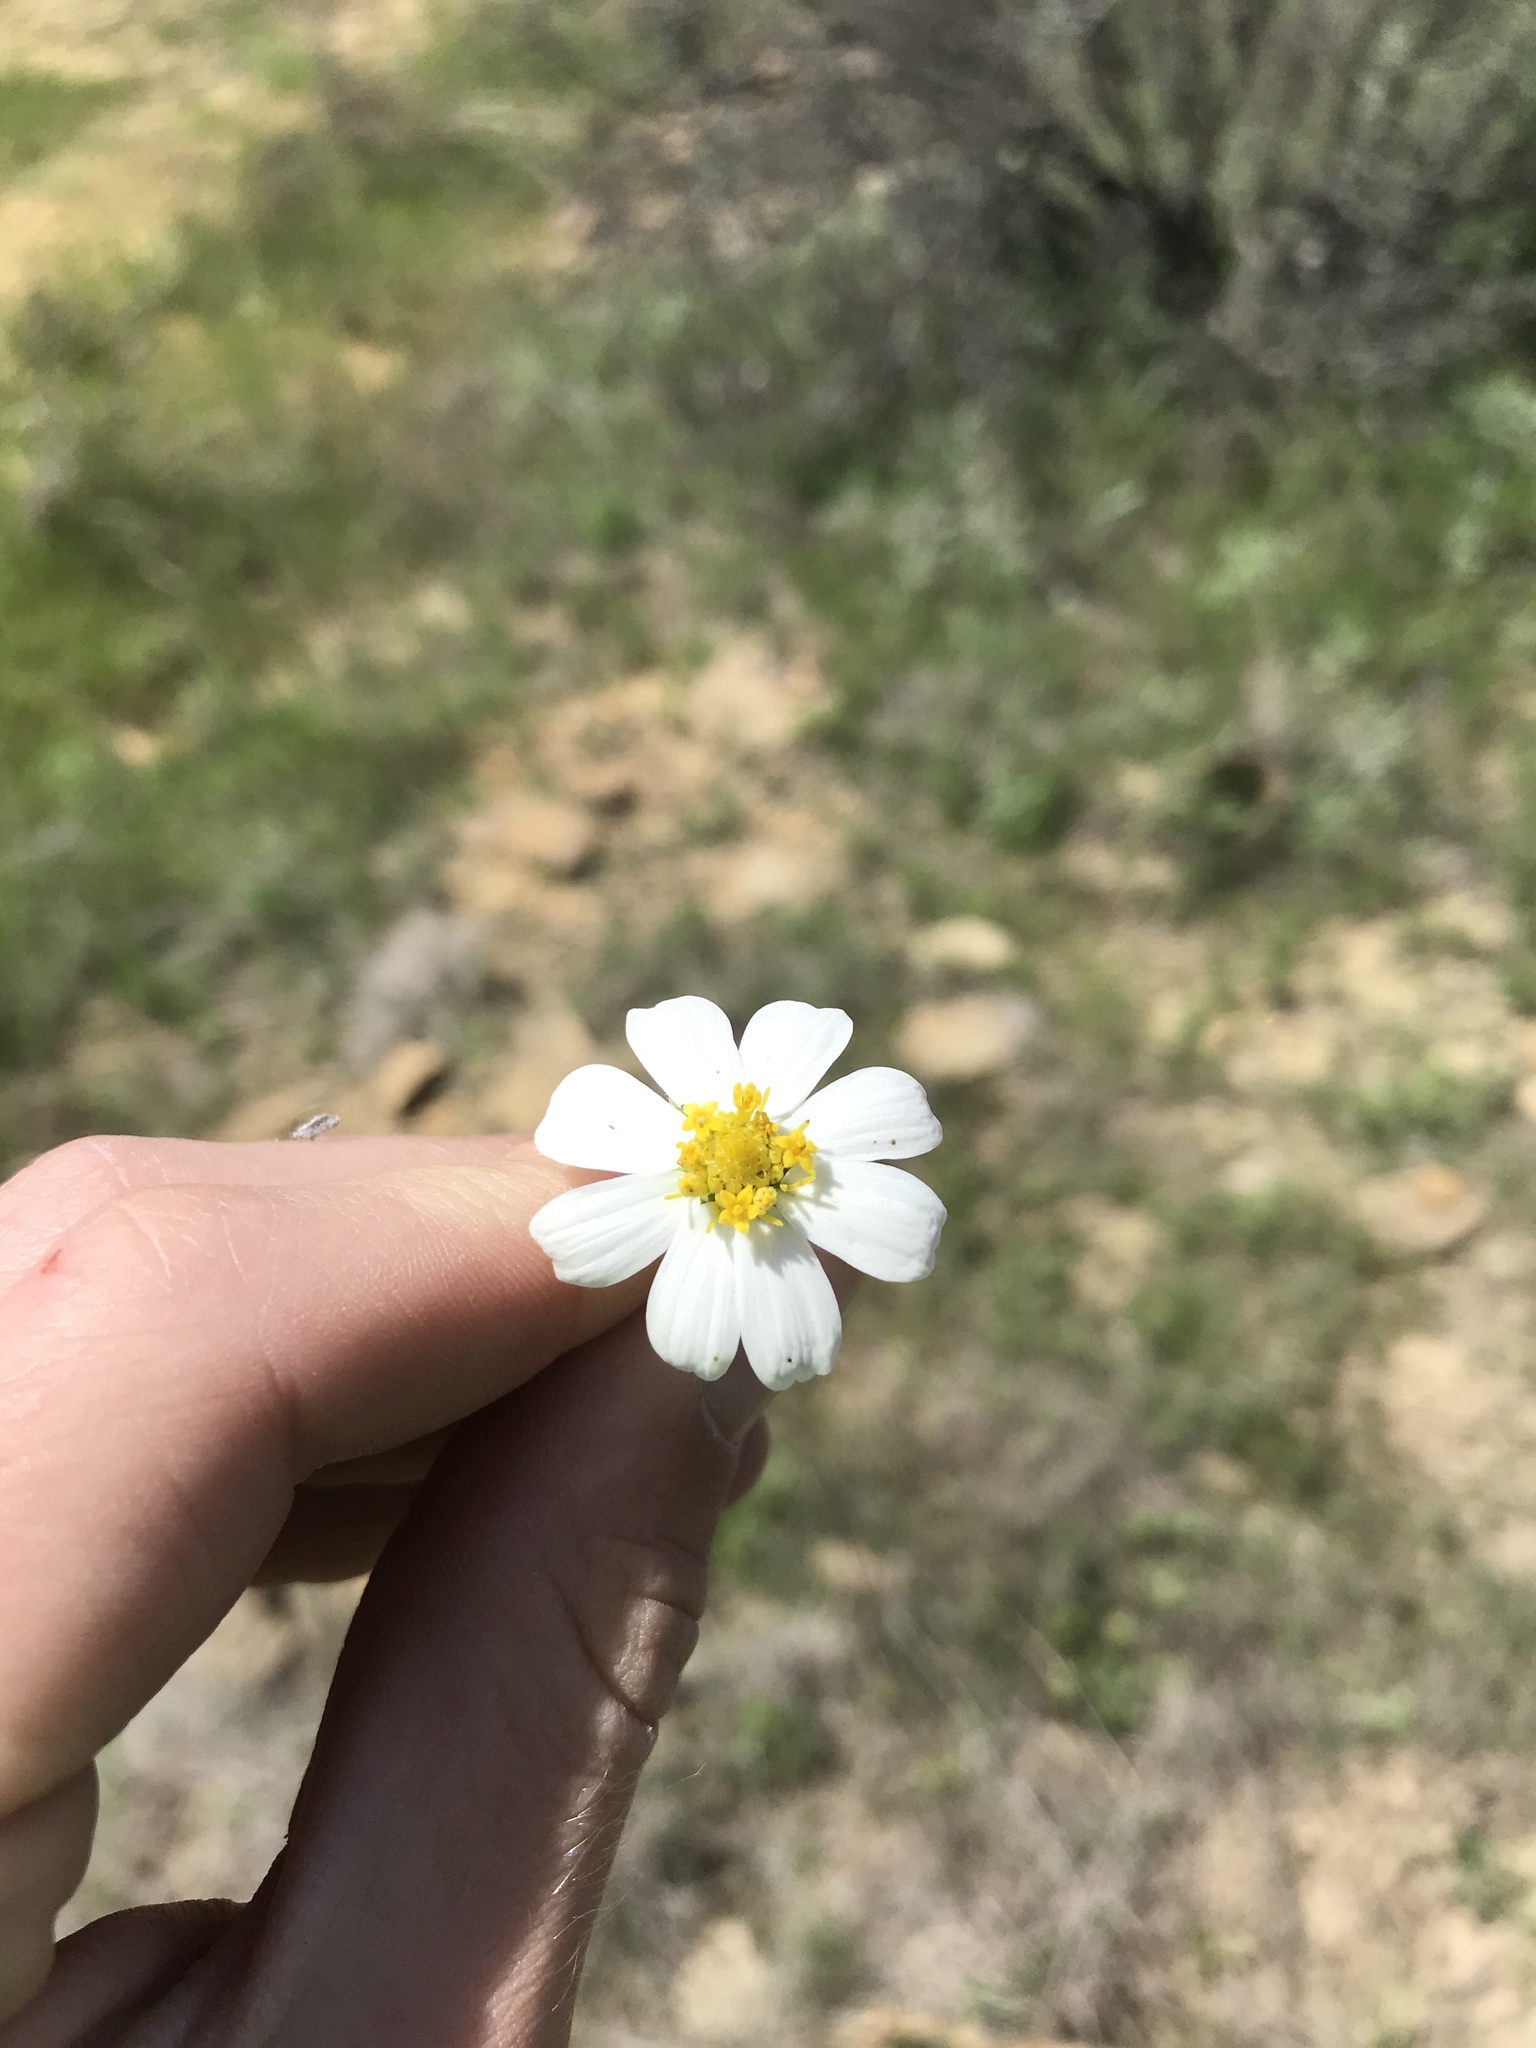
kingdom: Plantae
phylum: Tracheophyta
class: Magnoliopsida
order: Asterales
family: Asteraceae
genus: Melampodium
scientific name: Melampodium leucanthum
